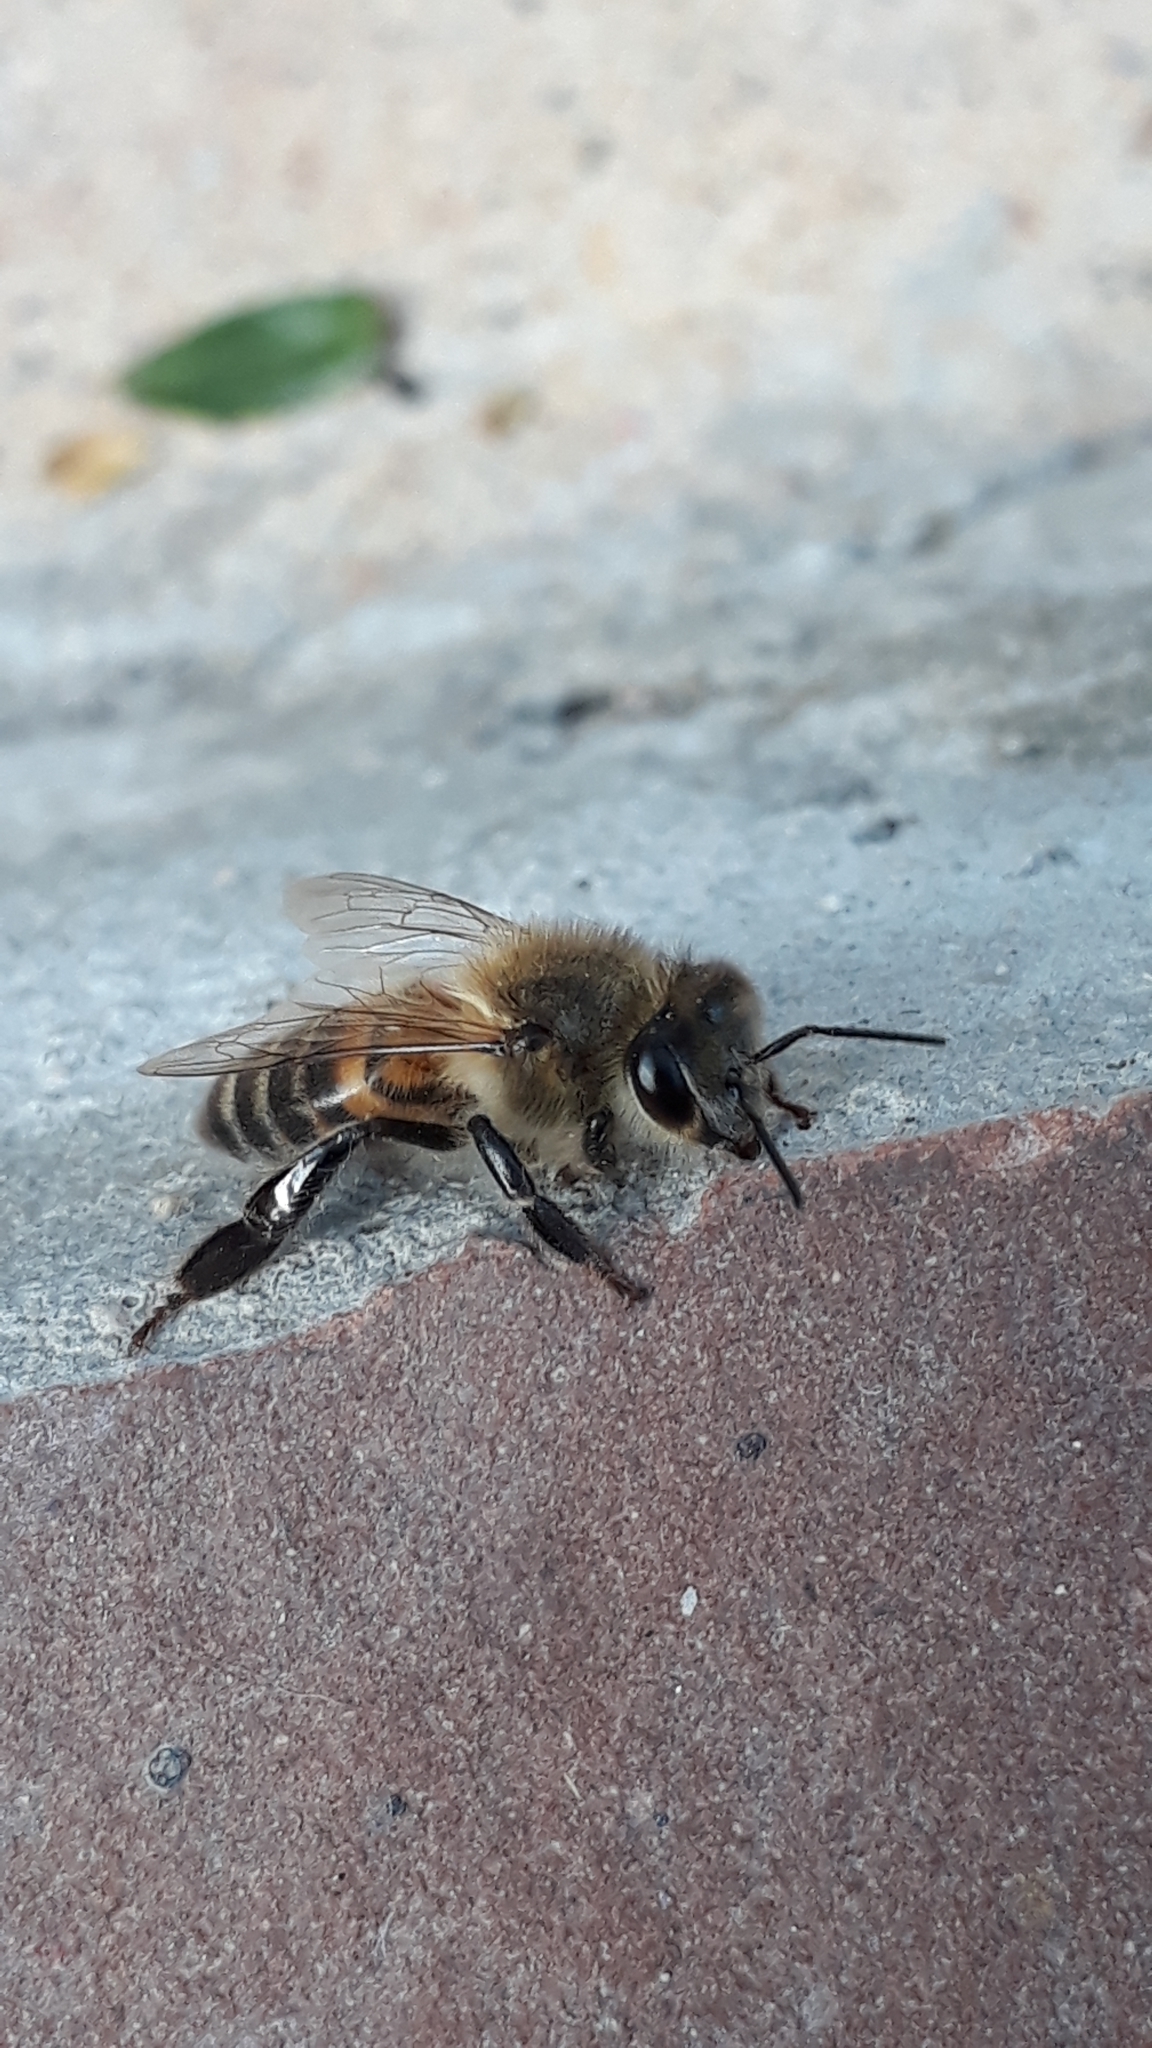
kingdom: Animalia
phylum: Arthropoda
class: Insecta
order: Hymenoptera
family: Apidae
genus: Apis
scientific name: Apis mellifera
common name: Honey bee
